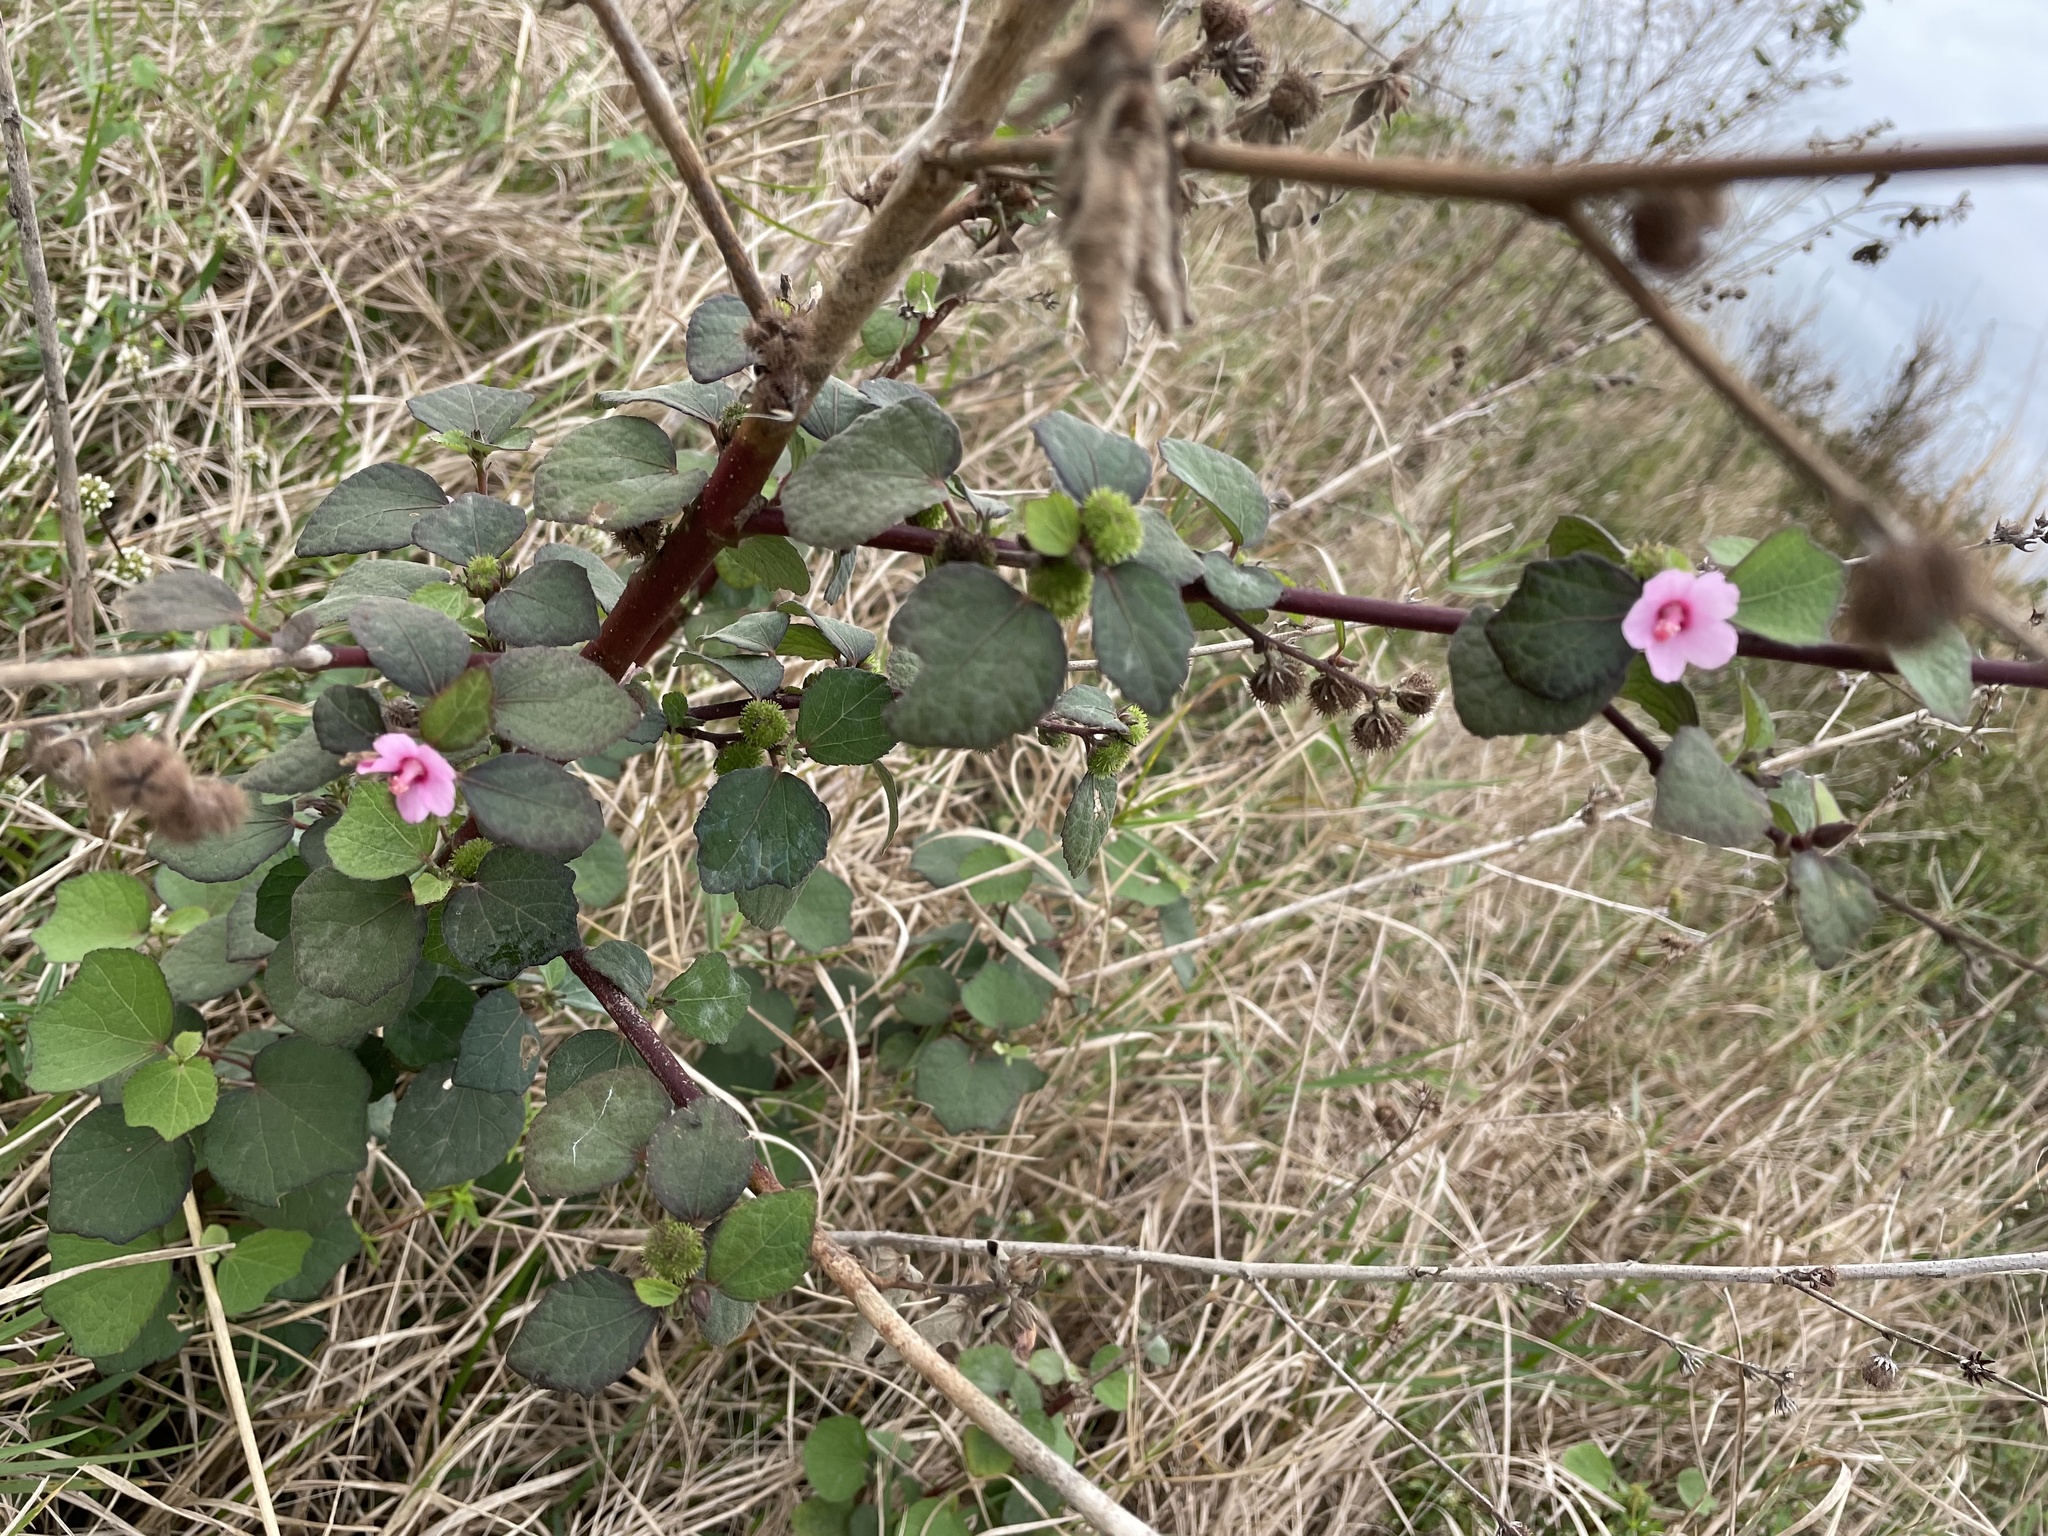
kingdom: Plantae
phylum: Tracheophyta
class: Magnoliopsida
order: Malvales
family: Malvaceae
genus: Urena
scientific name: Urena lobata
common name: Caesarweed
